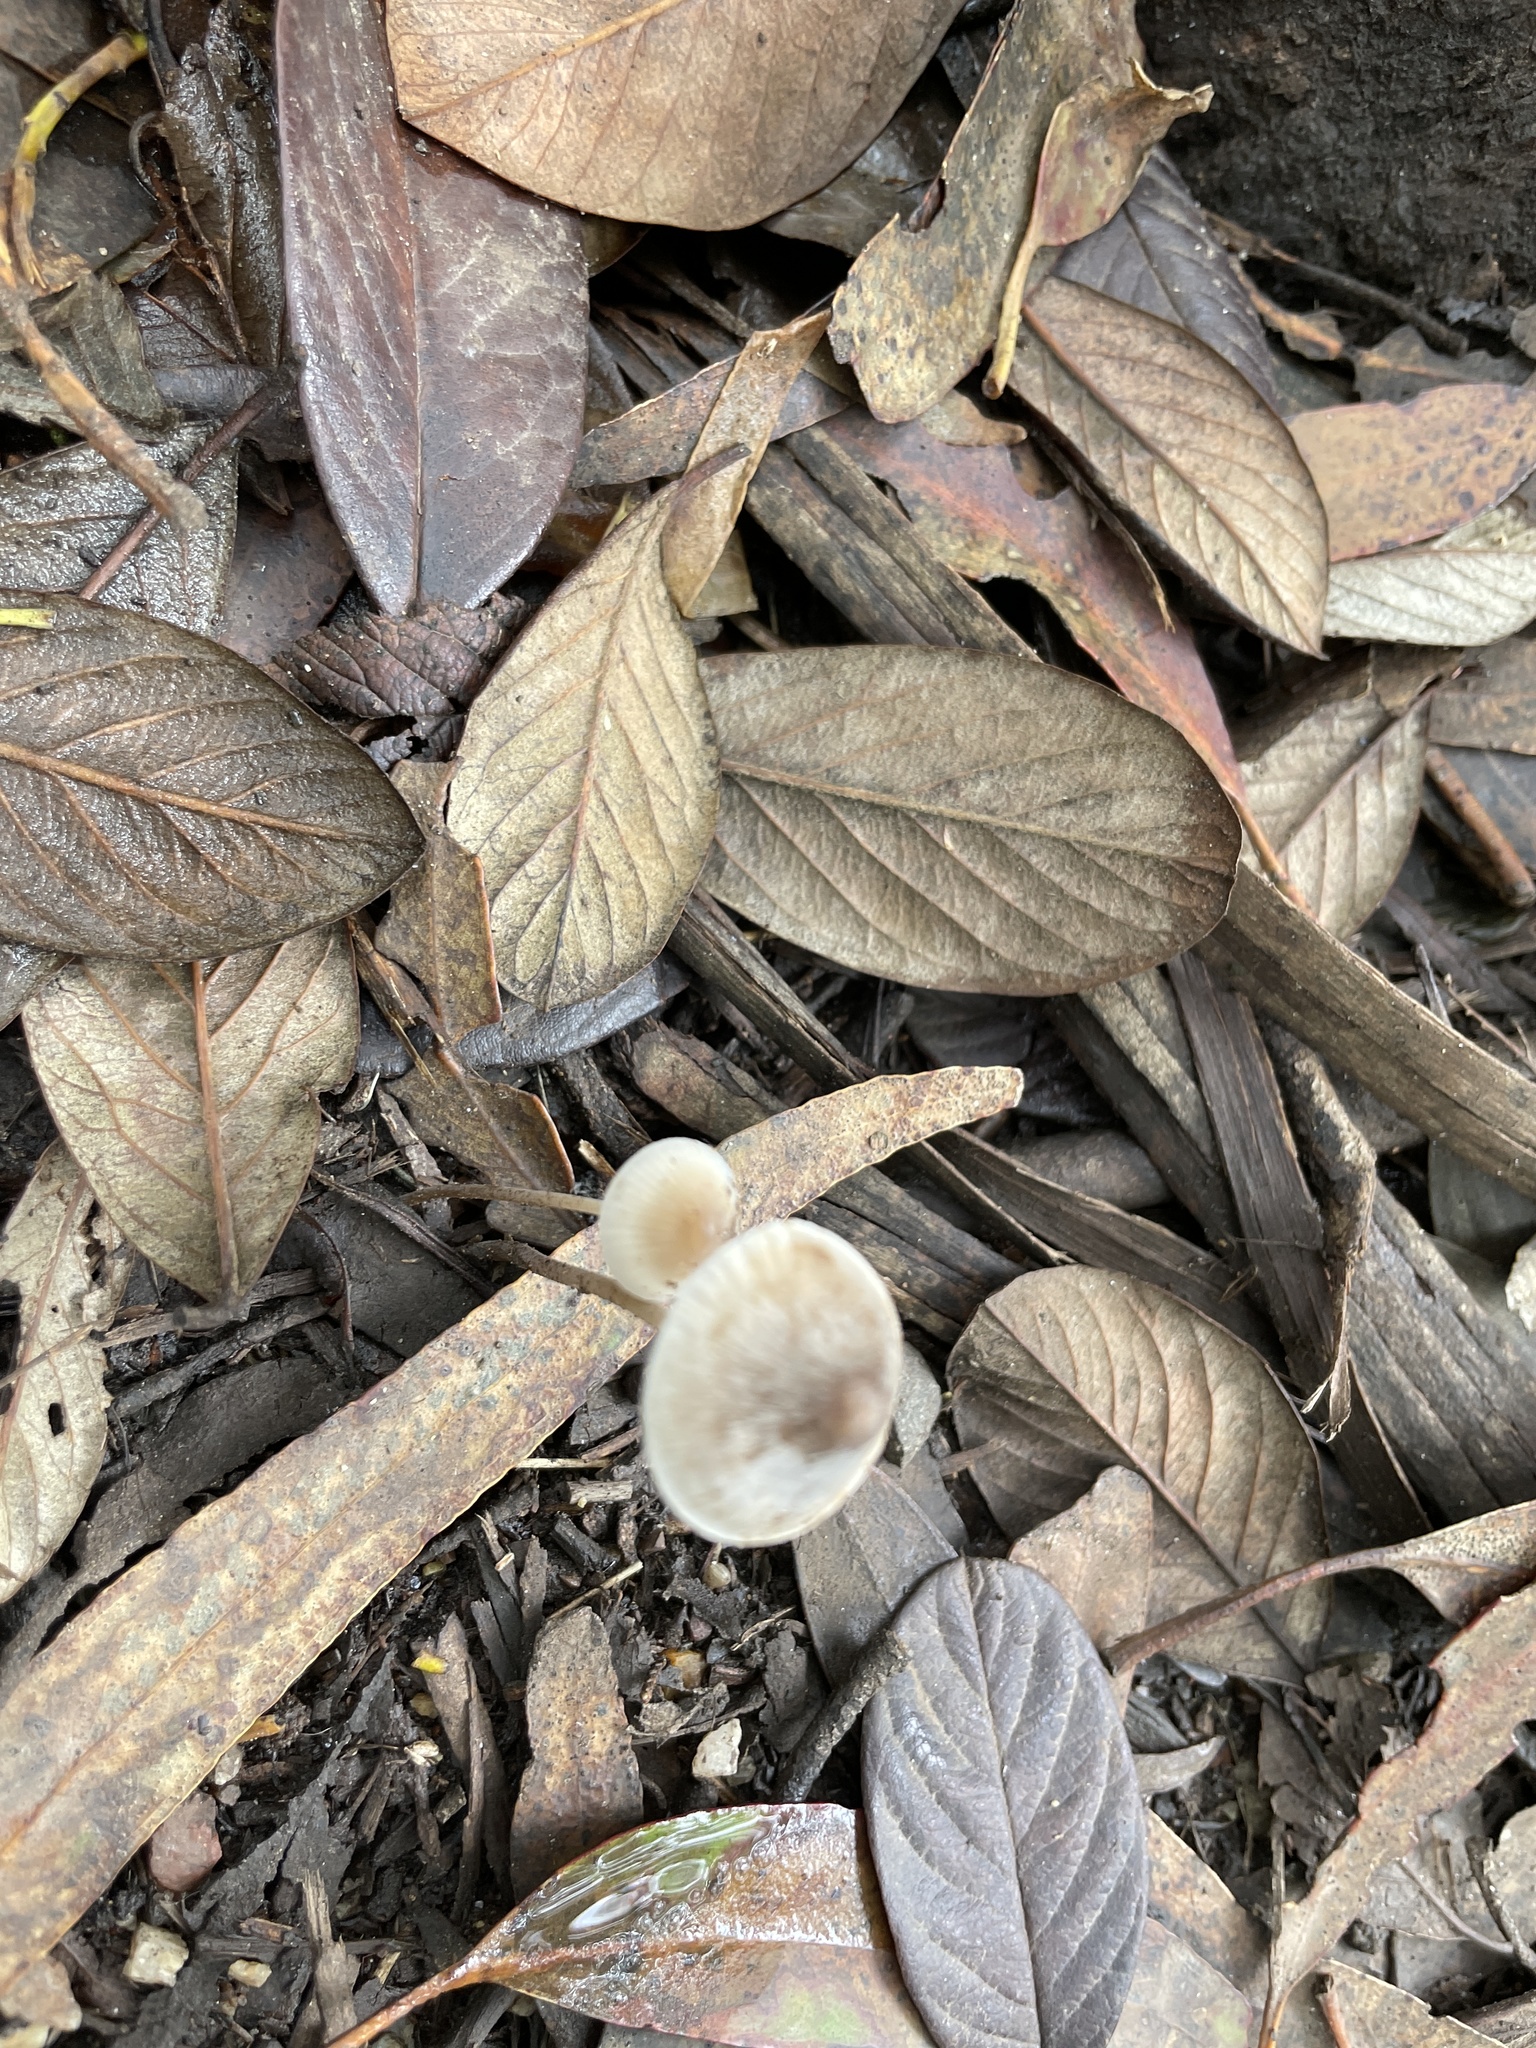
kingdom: Fungi
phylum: Basidiomycota
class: Agaricomycetes
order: Agaricales
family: Mycenaceae
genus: Mycena
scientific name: Mycena leptocephala
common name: Nitrous bonnet
